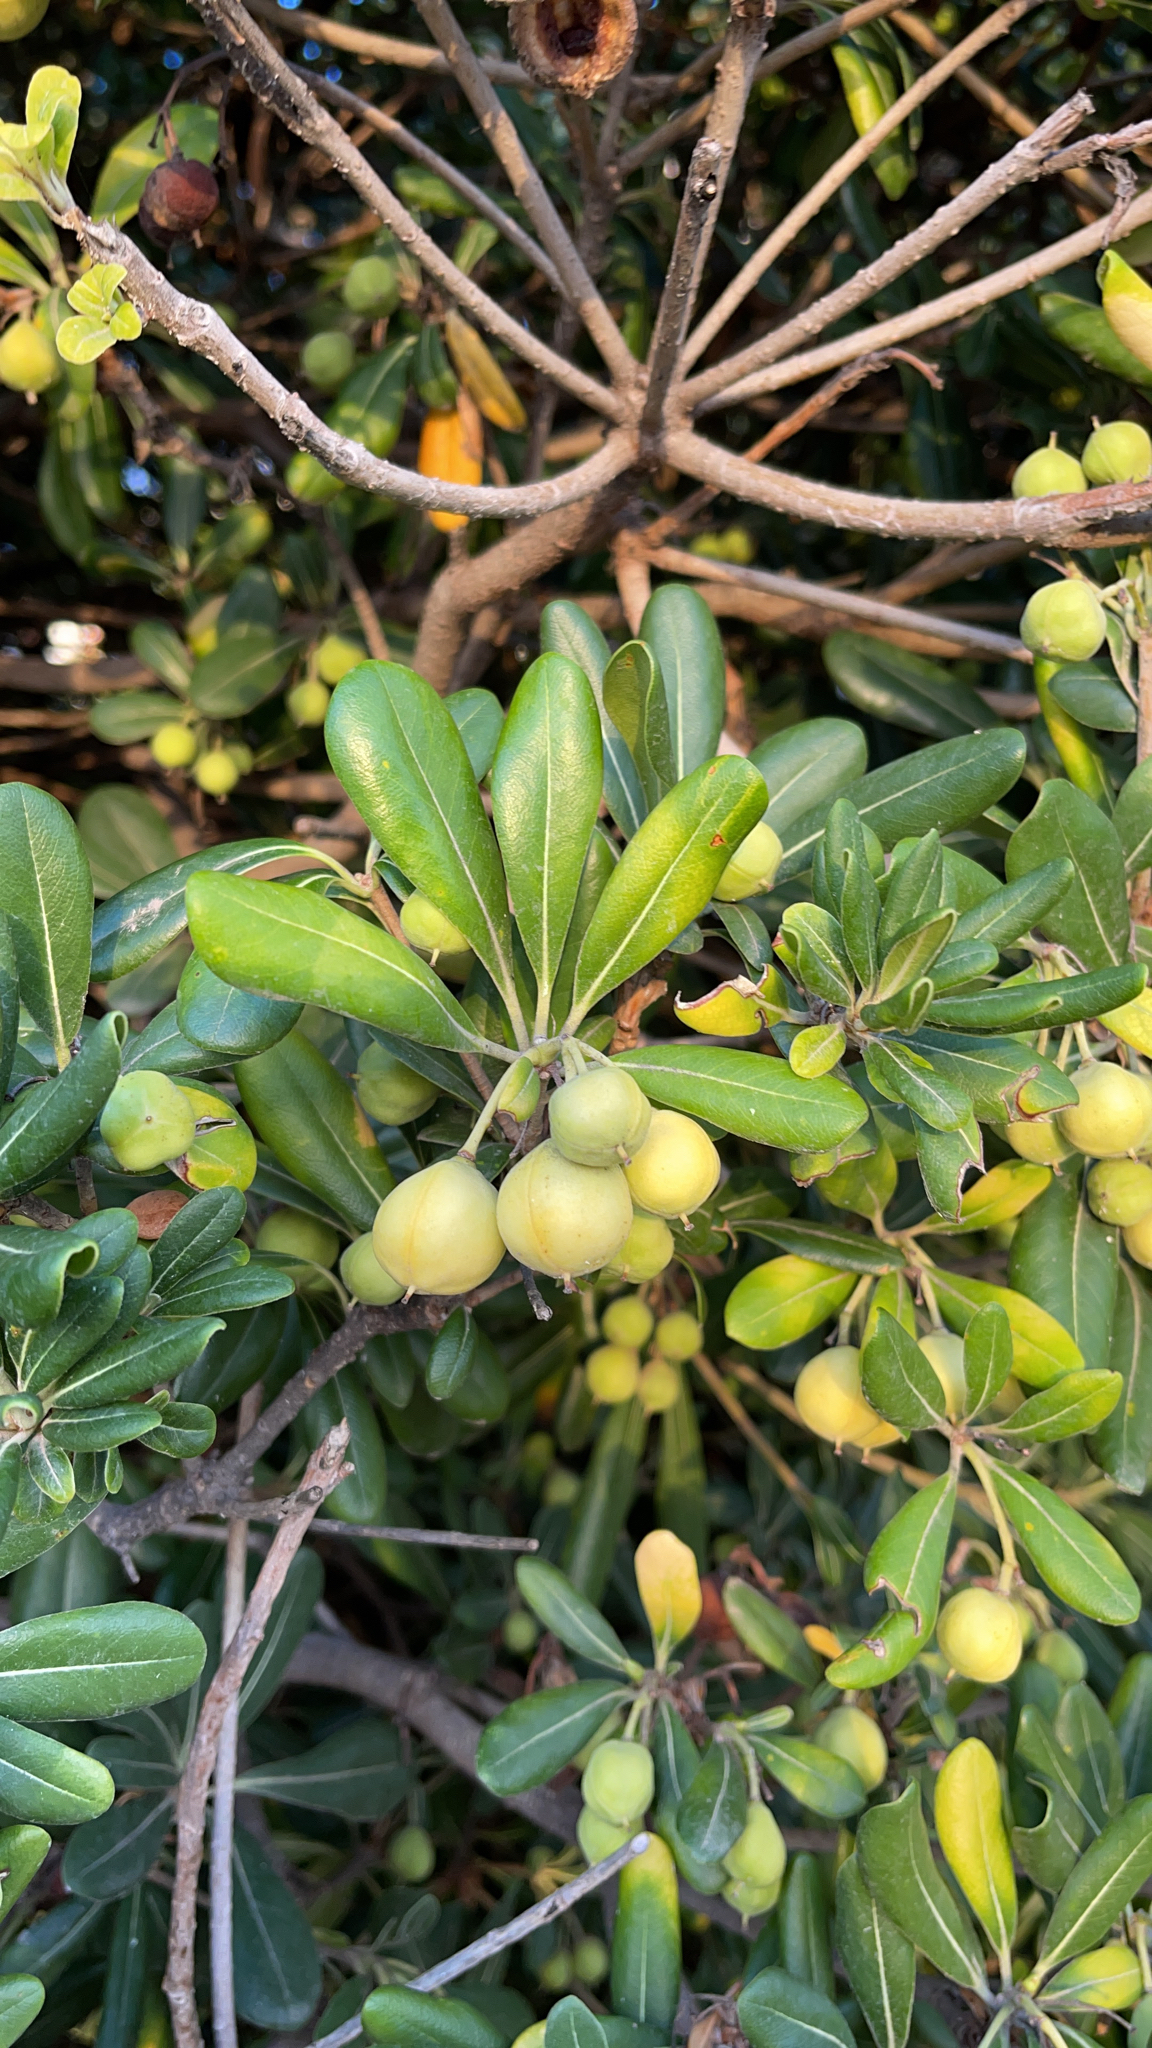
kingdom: Plantae
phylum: Tracheophyta
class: Magnoliopsida
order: Apiales
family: Pittosporaceae
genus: Pittosporum
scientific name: Pittosporum tobira
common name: Japanese cheesewood
